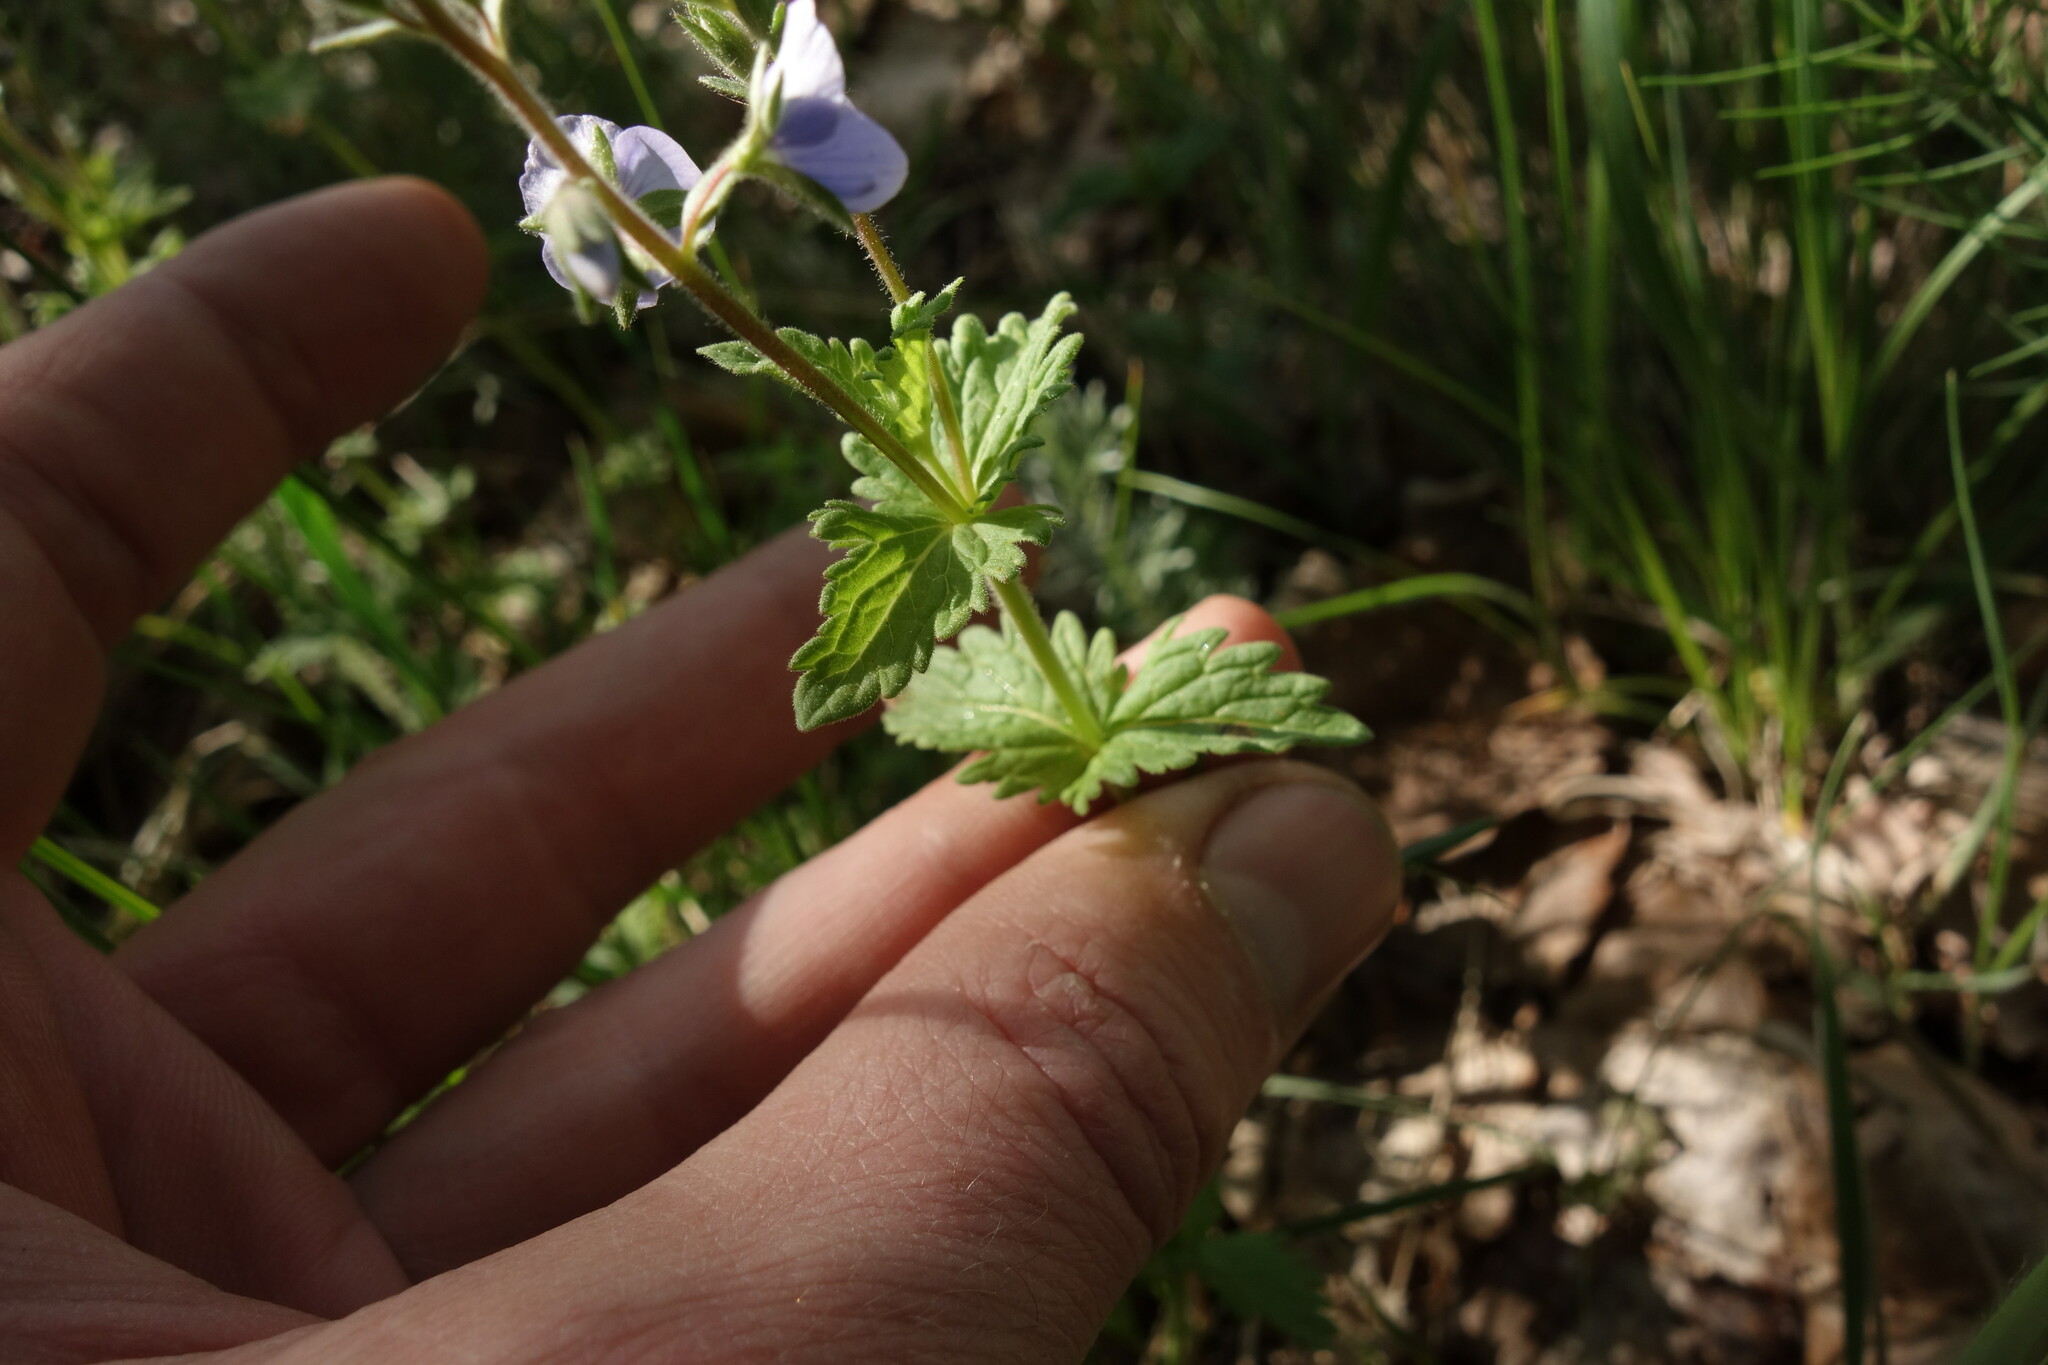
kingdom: Plantae
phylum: Tracheophyta
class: Magnoliopsida
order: Lamiales
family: Plantaginaceae
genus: Veronica
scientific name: Veronica chamaedrys
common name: Germander speedwell
